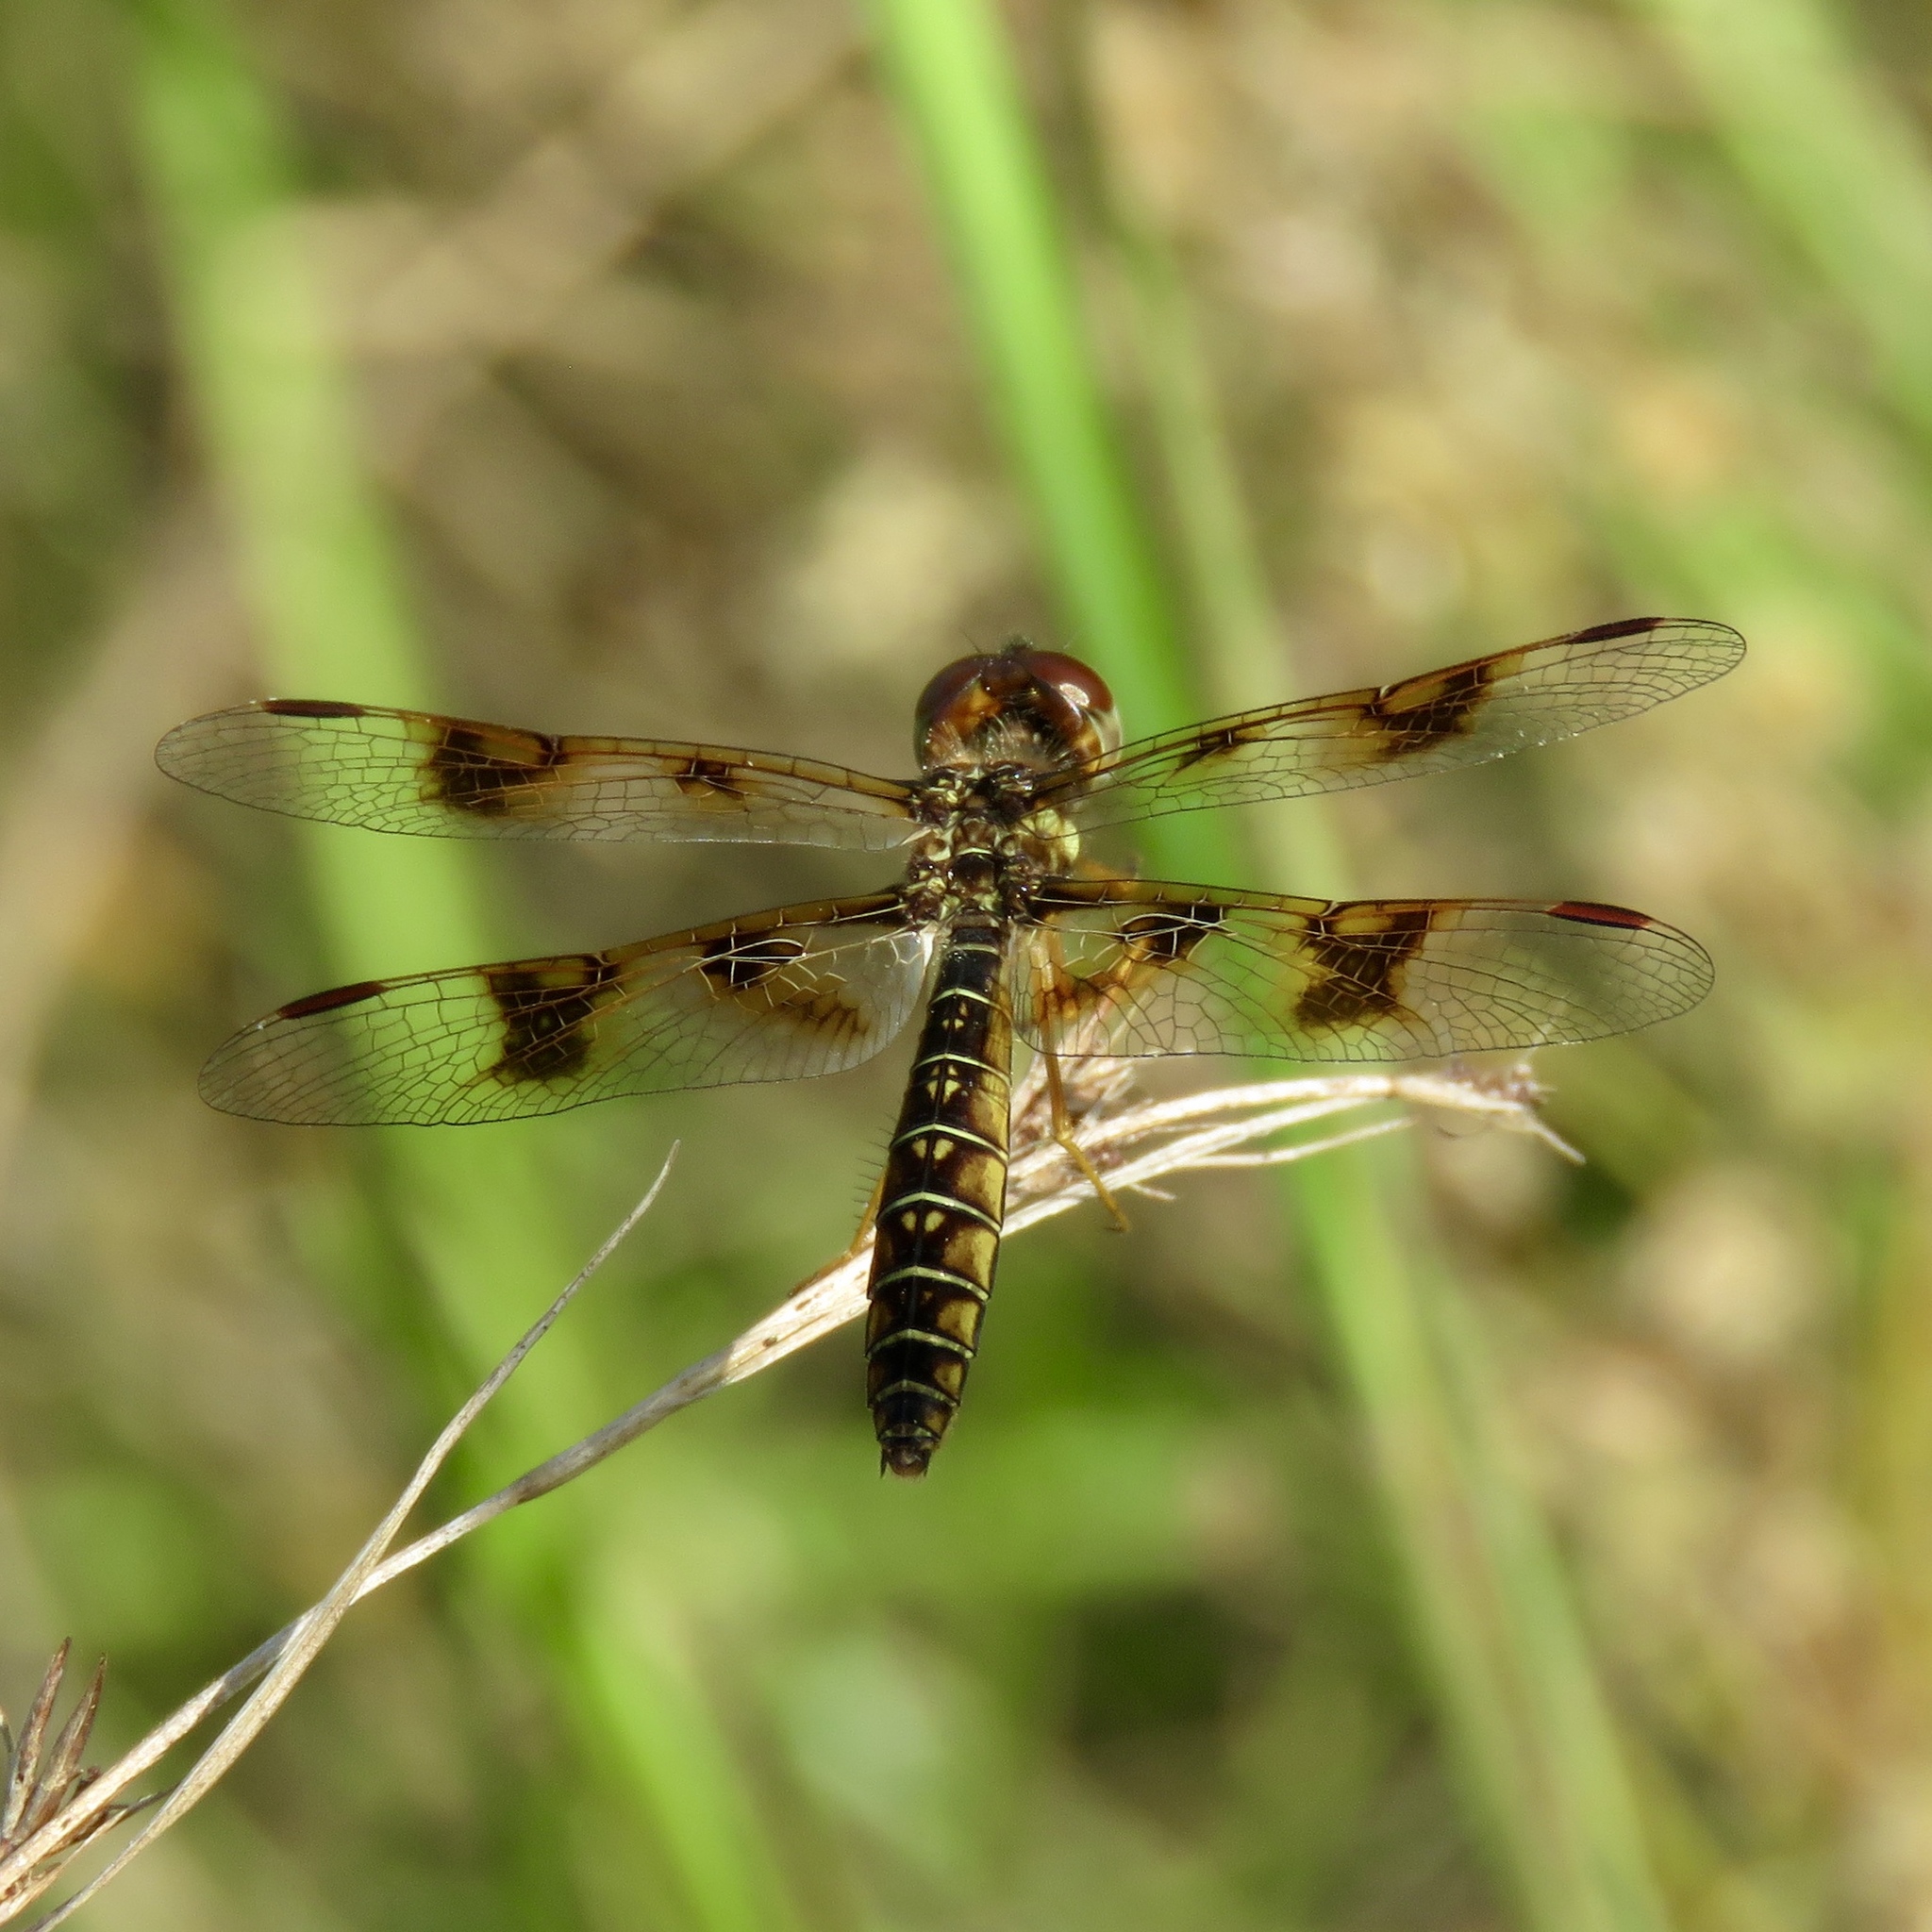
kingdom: Animalia
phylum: Arthropoda
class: Insecta
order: Odonata
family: Libellulidae
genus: Perithemis
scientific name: Perithemis tenera
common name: Eastern amberwing
